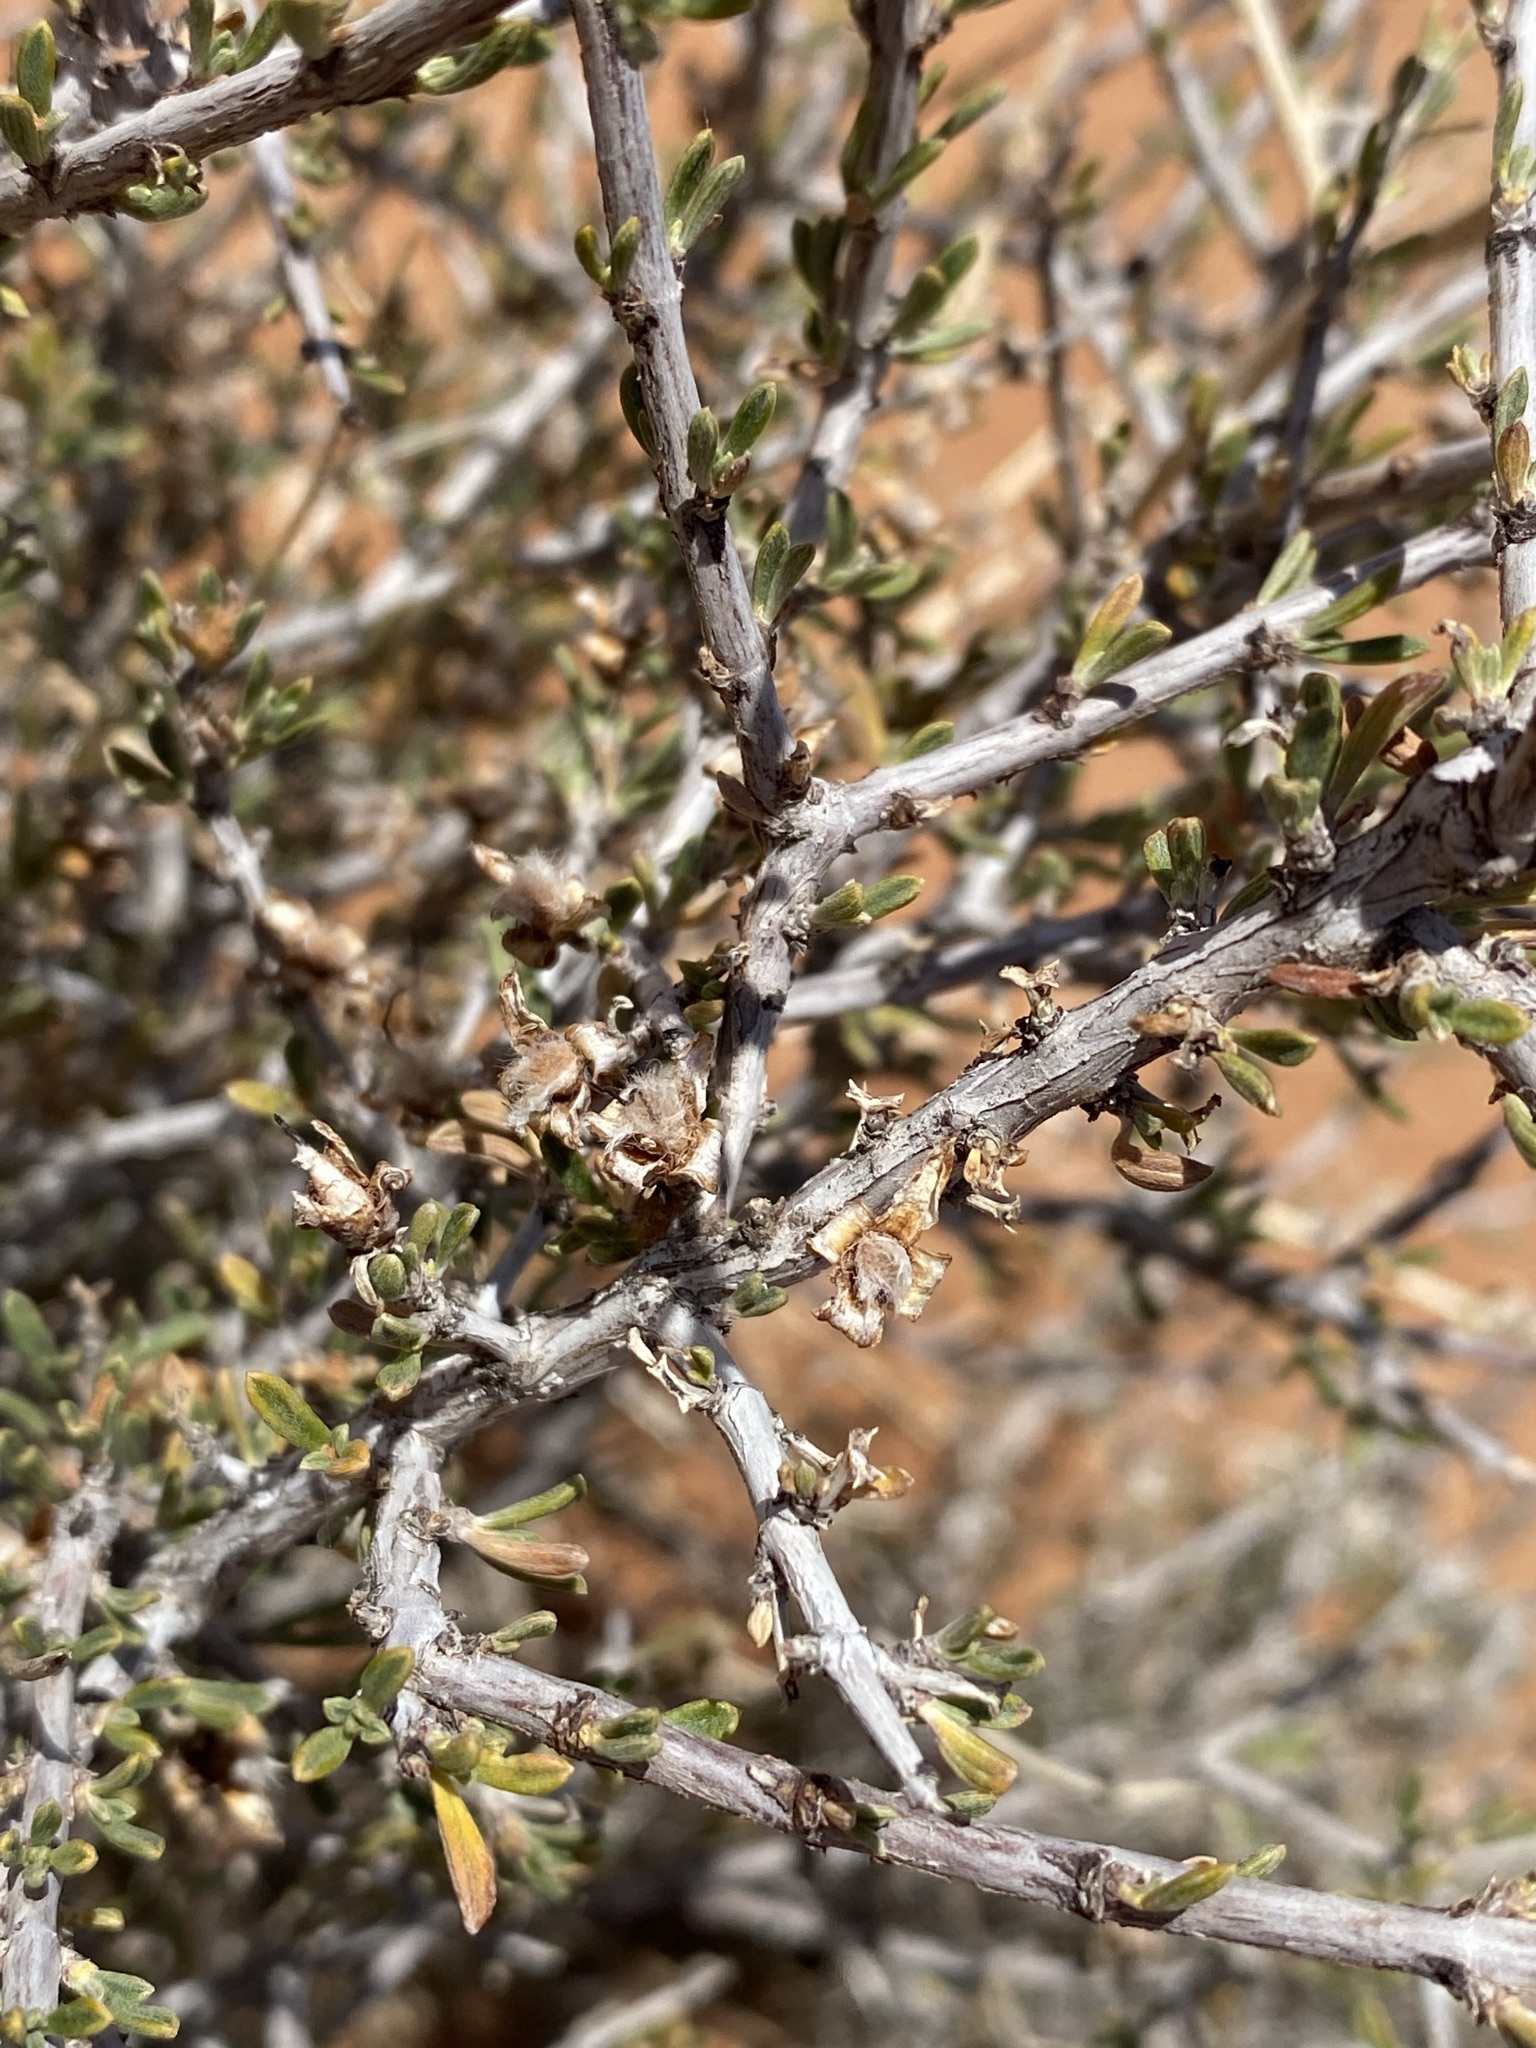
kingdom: Plantae
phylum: Tracheophyta
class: Magnoliopsida
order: Rosales
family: Rosaceae
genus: Coleogyne
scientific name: Coleogyne ramosissima
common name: Blackbrush
